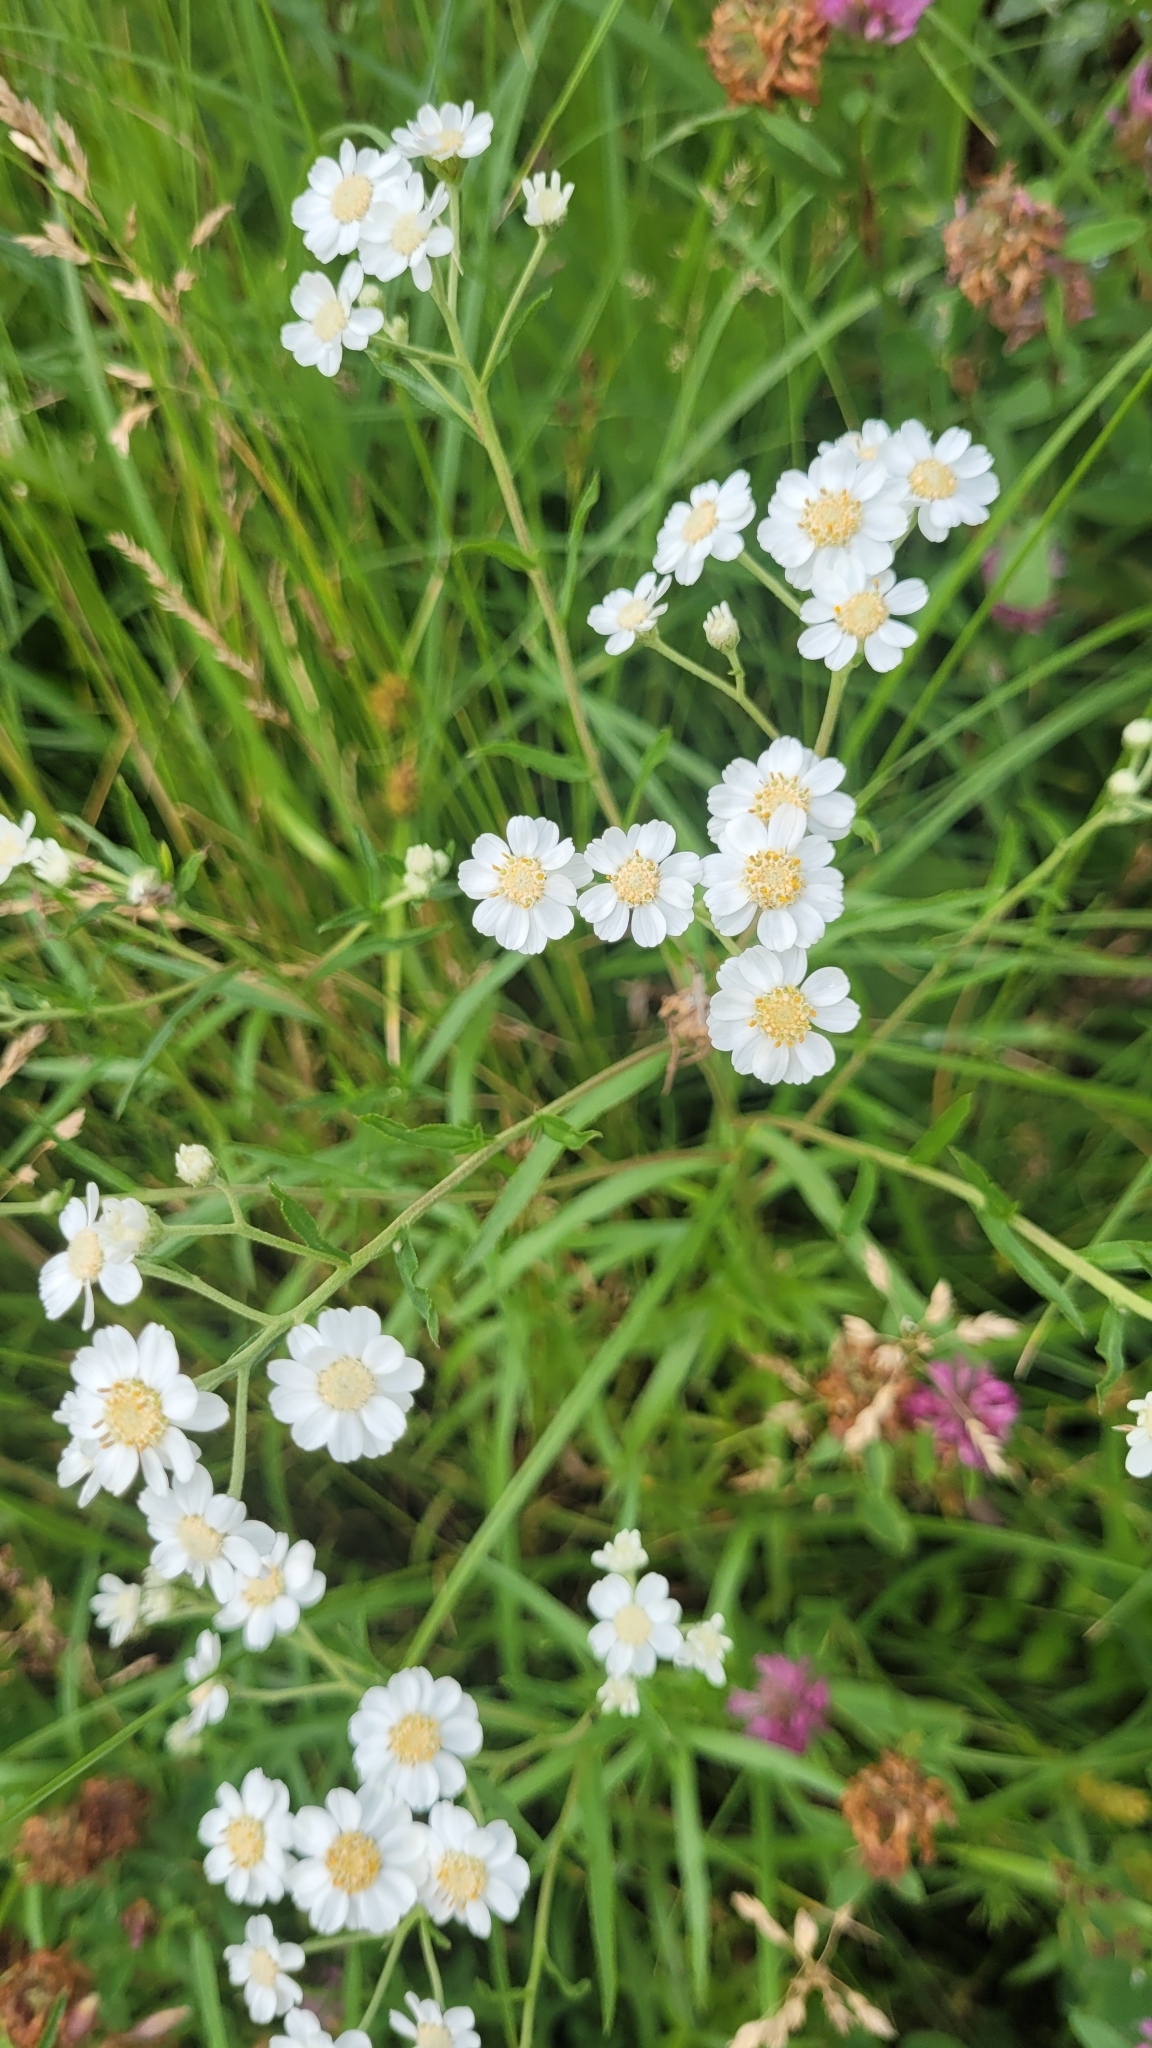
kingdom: Plantae
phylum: Tracheophyta
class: Magnoliopsida
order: Asterales
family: Asteraceae
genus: Achillea
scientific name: Achillea ptarmica
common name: Sneezeweed
